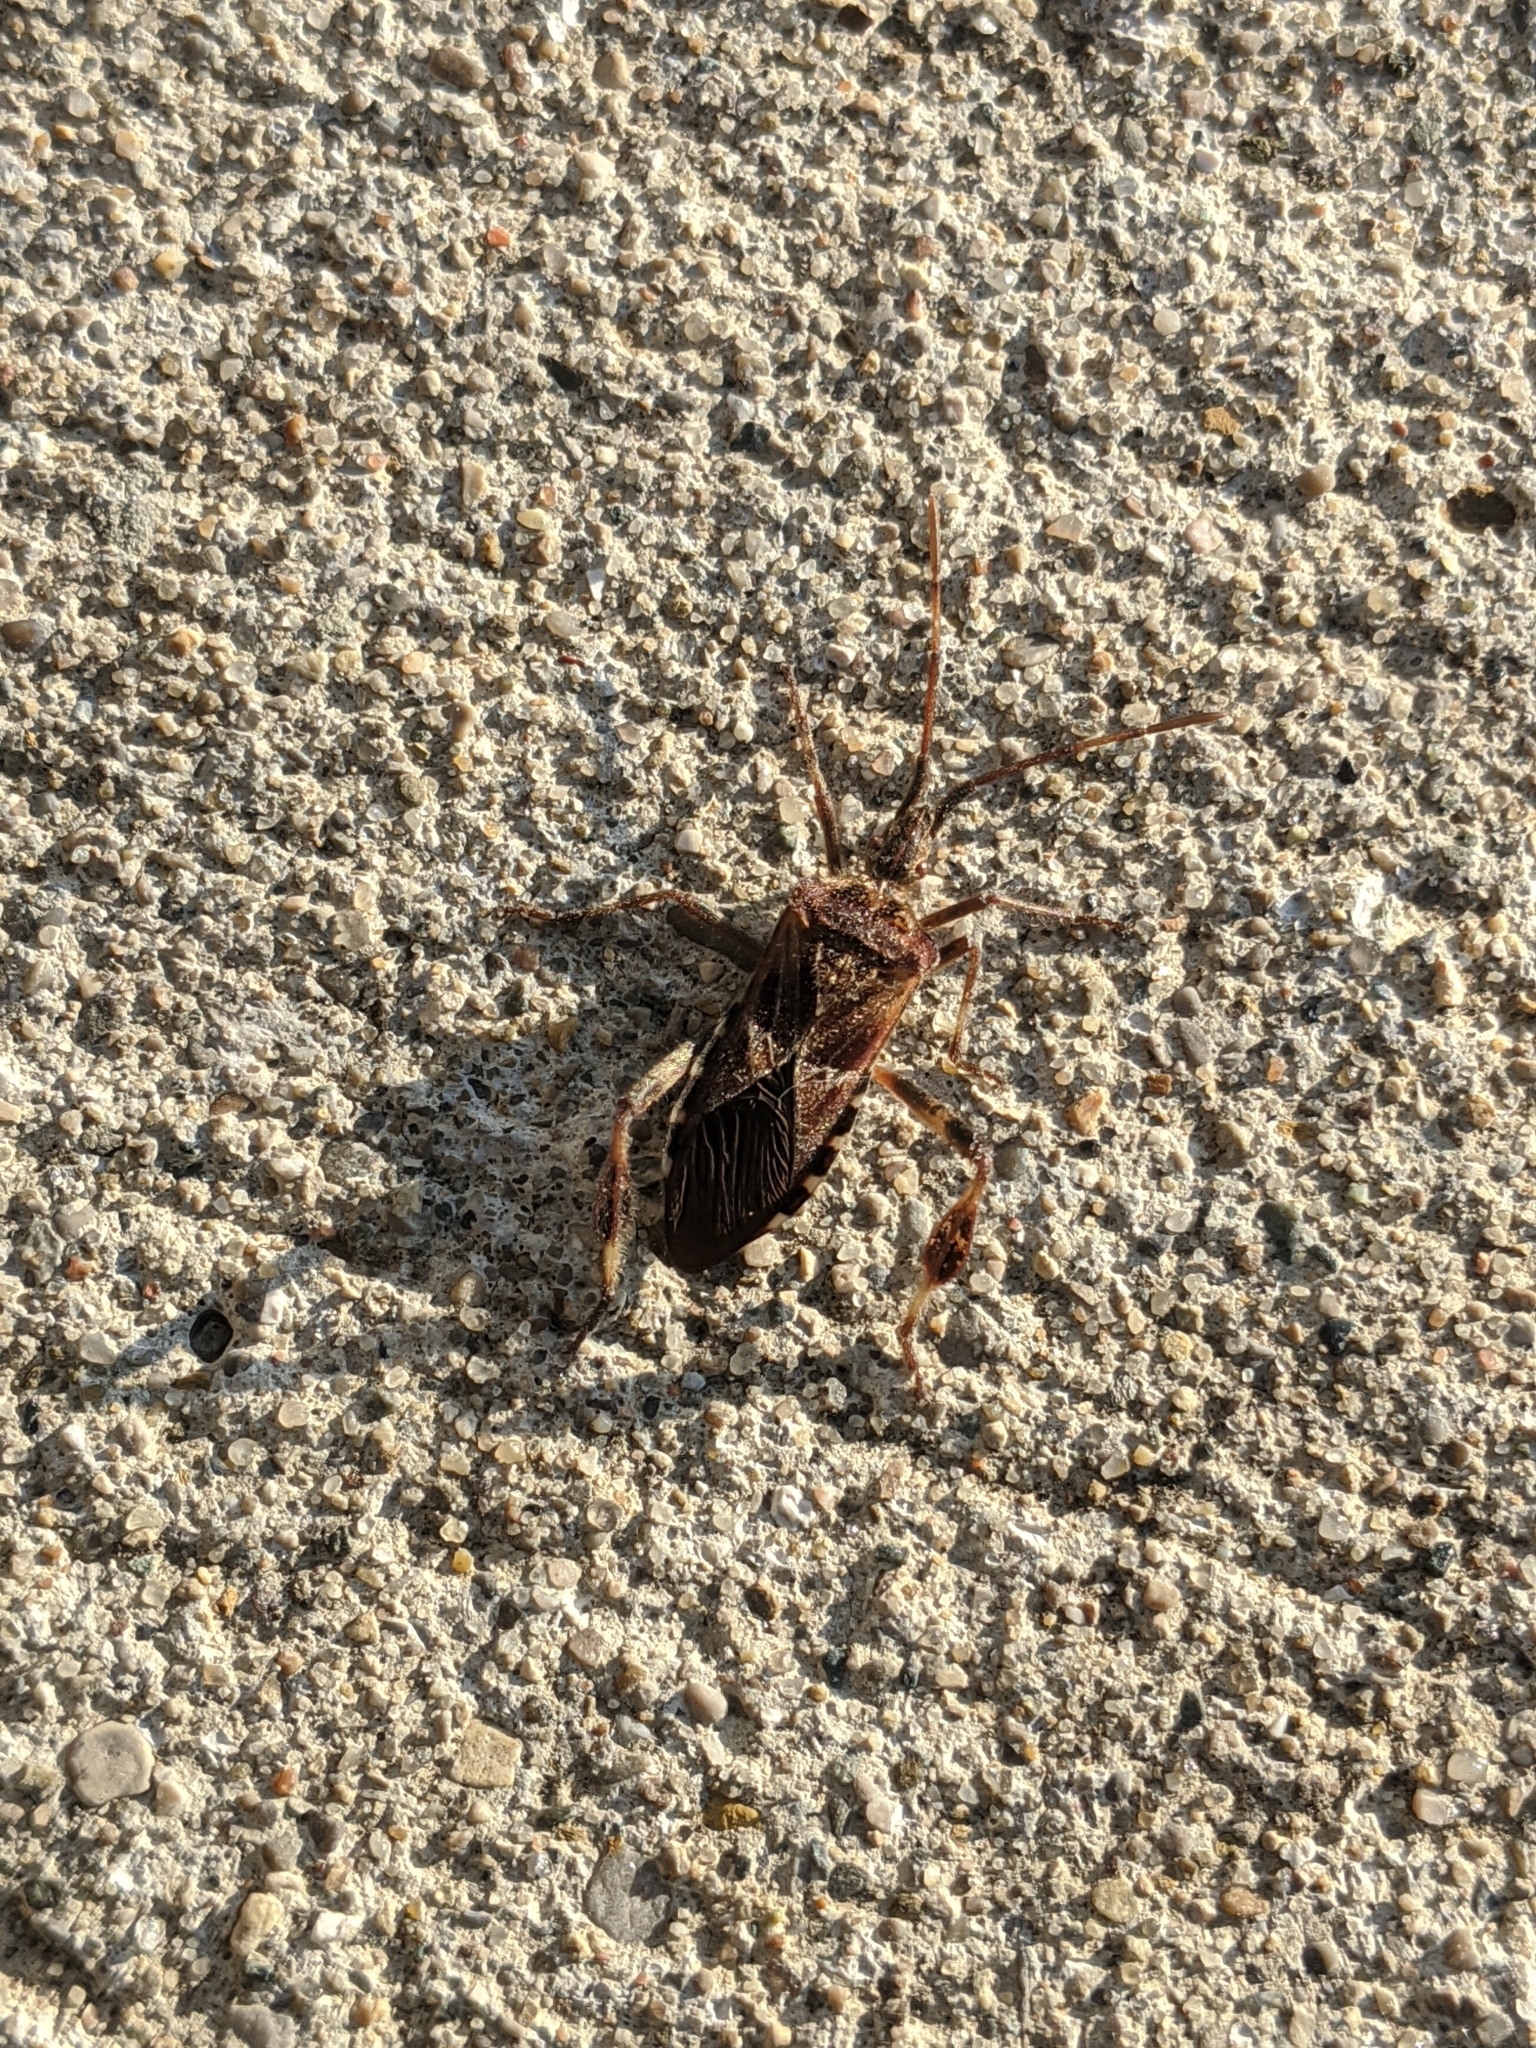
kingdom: Animalia
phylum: Arthropoda
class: Insecta
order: Hemiptera
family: Coreidae
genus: Leptoglossus
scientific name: Leptoglossus occidentalis
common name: Western conifer-seed bug
